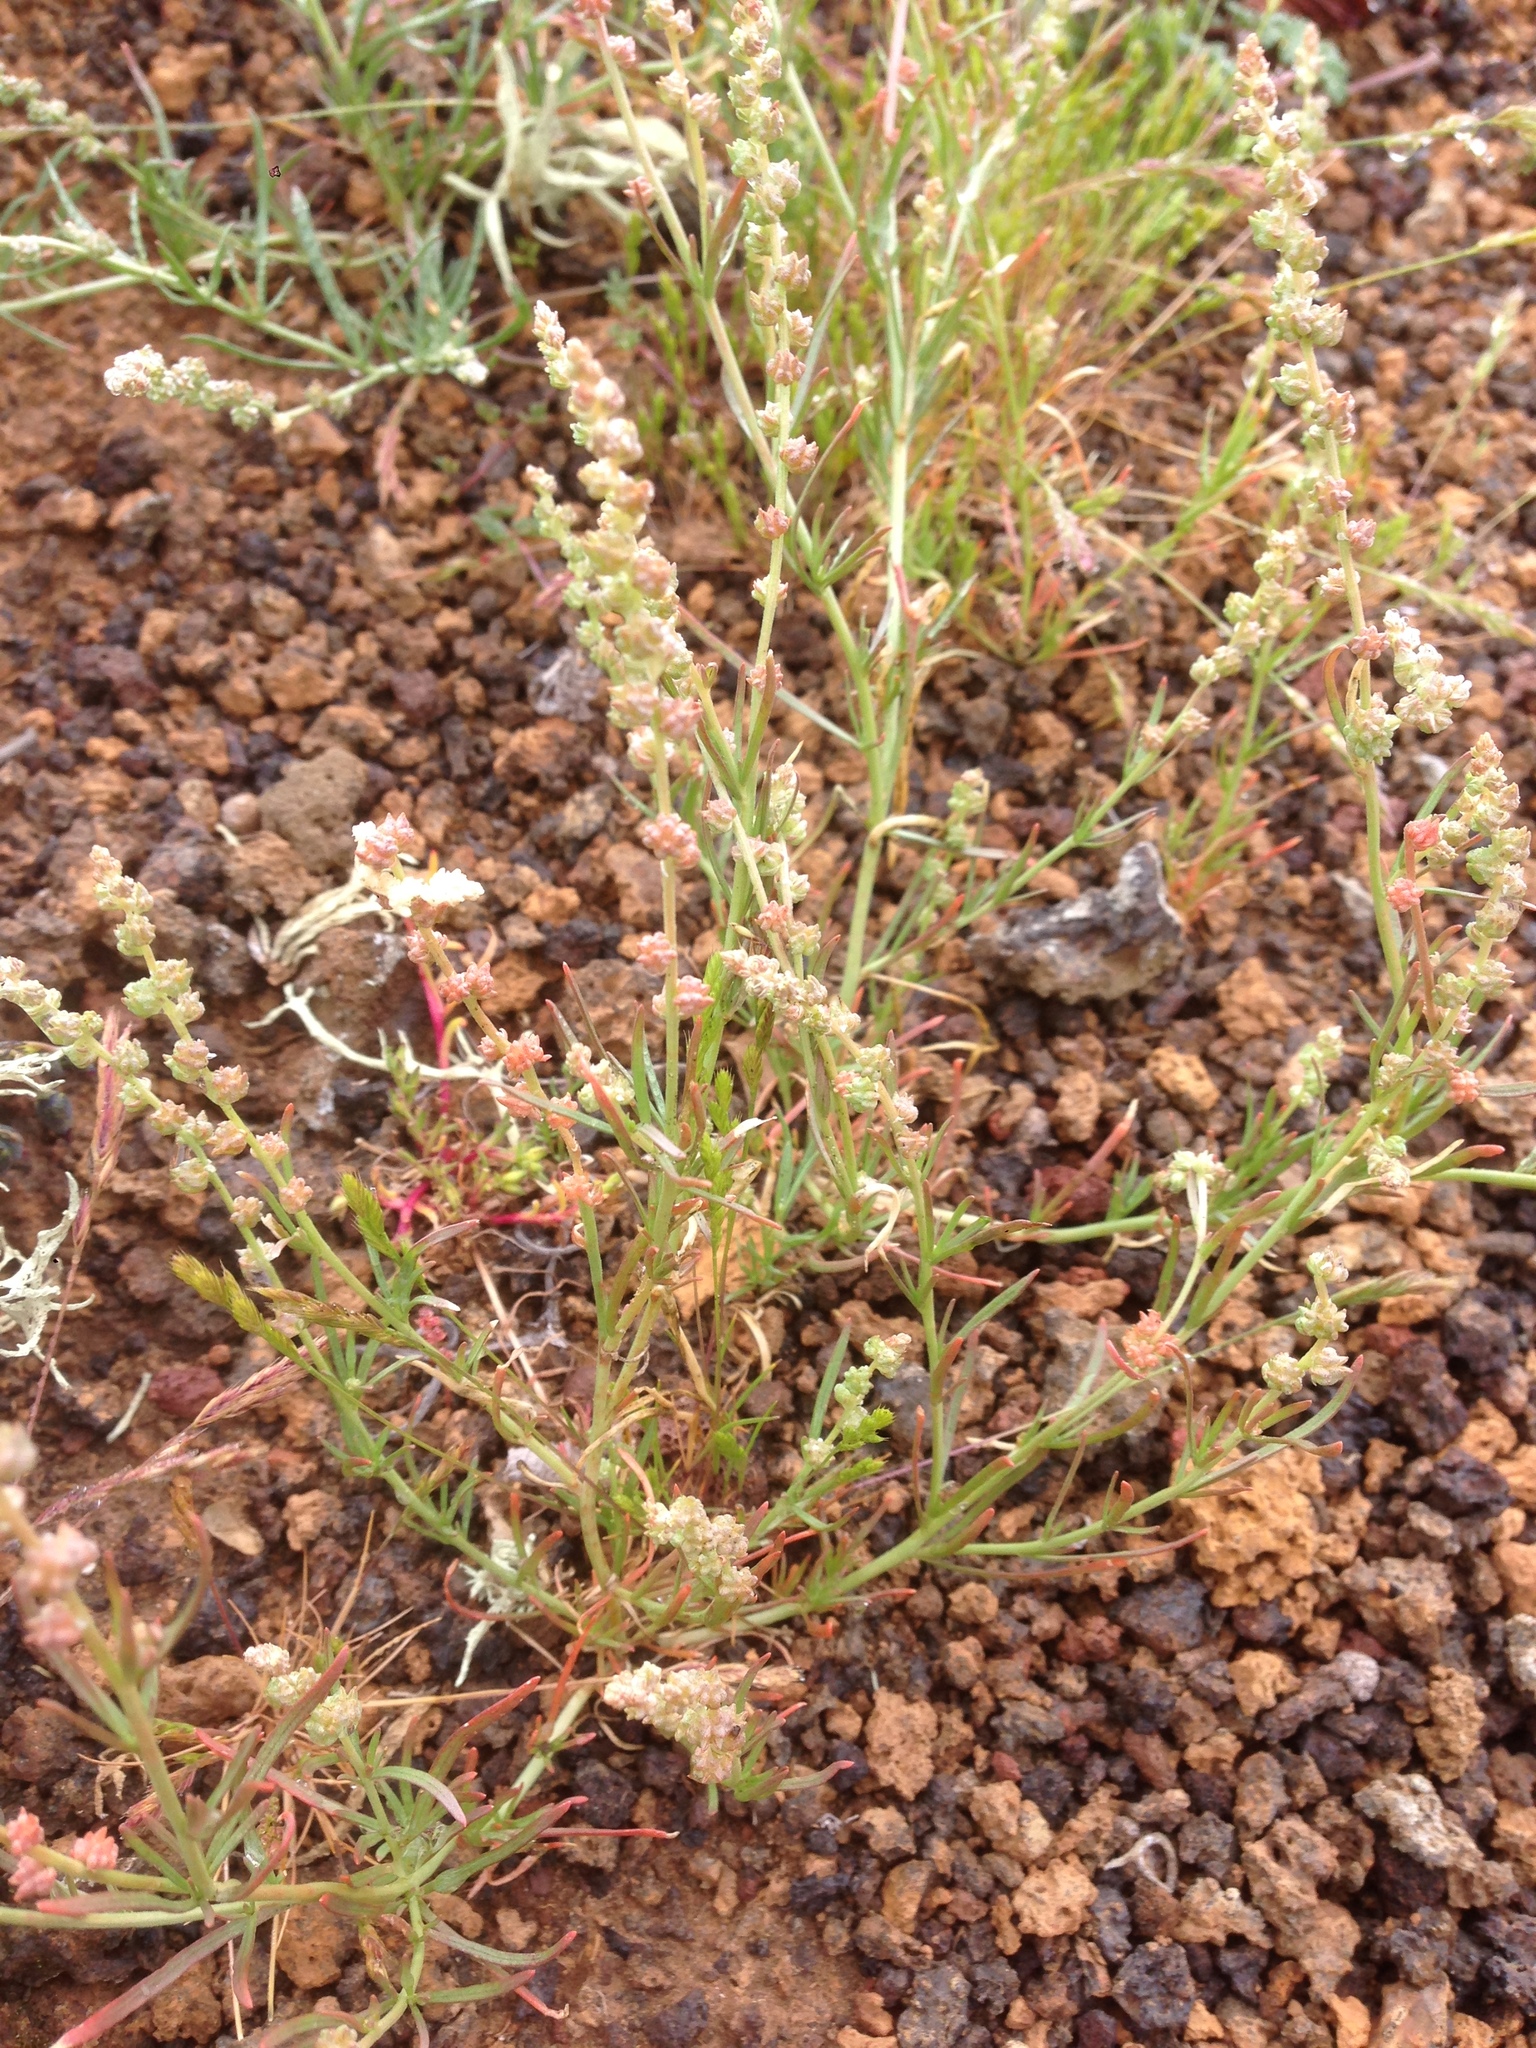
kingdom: Plantae
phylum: Tracheophyta
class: Magnoliopsida
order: Brassicales
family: Resedaceae
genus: Oligomeris
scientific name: Oligomeris linifolia
